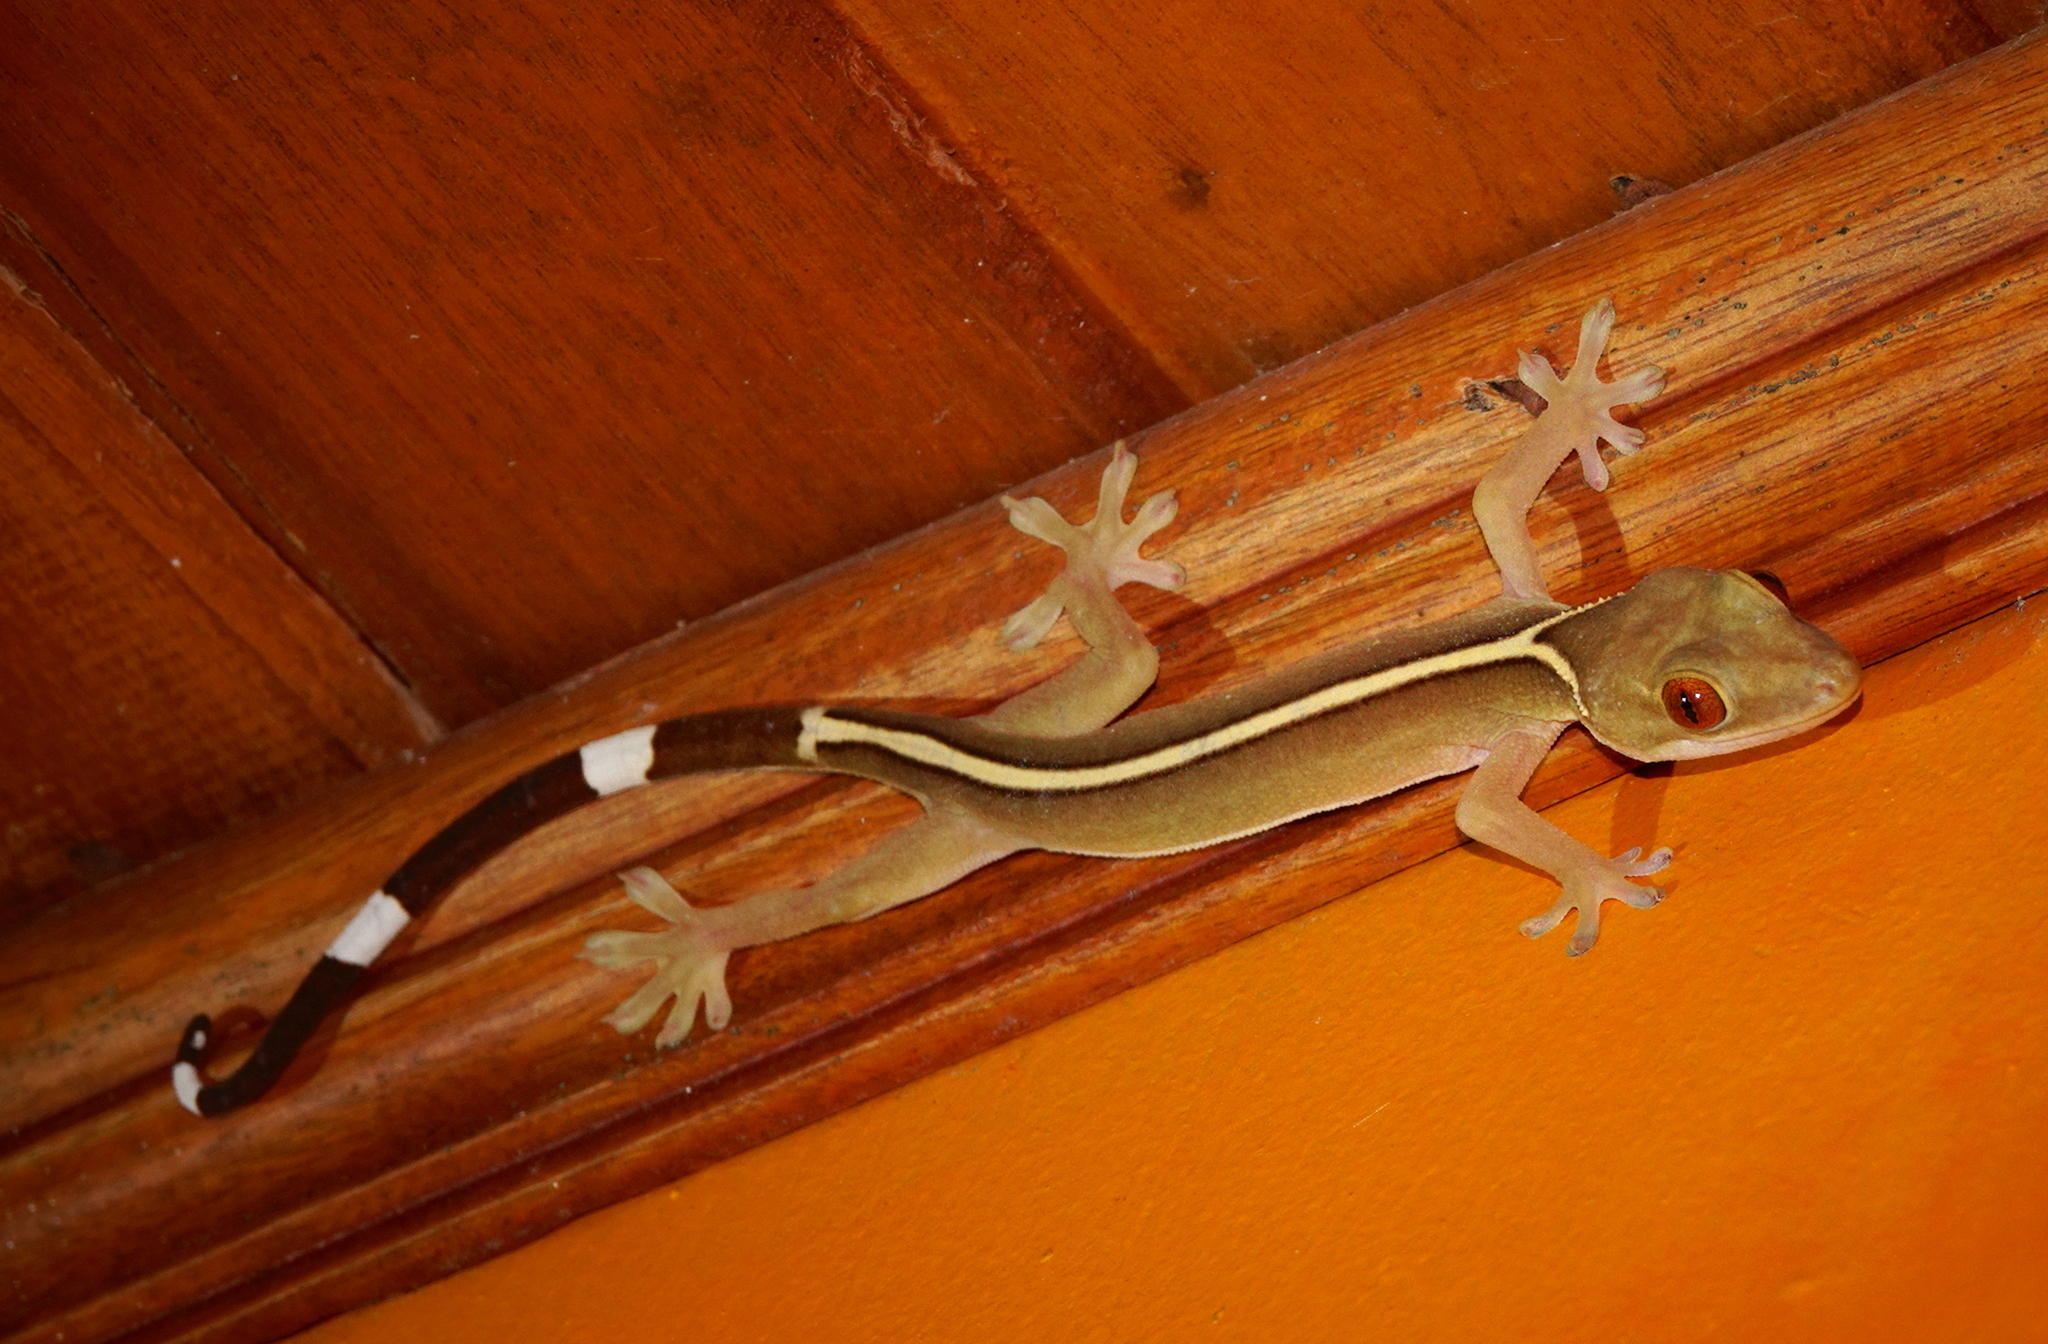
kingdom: Animalia
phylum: Chordata
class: Squamata
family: Gekkonidae
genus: Gekko
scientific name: Gekko vittatus
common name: Indo-pacific ghost gecko
